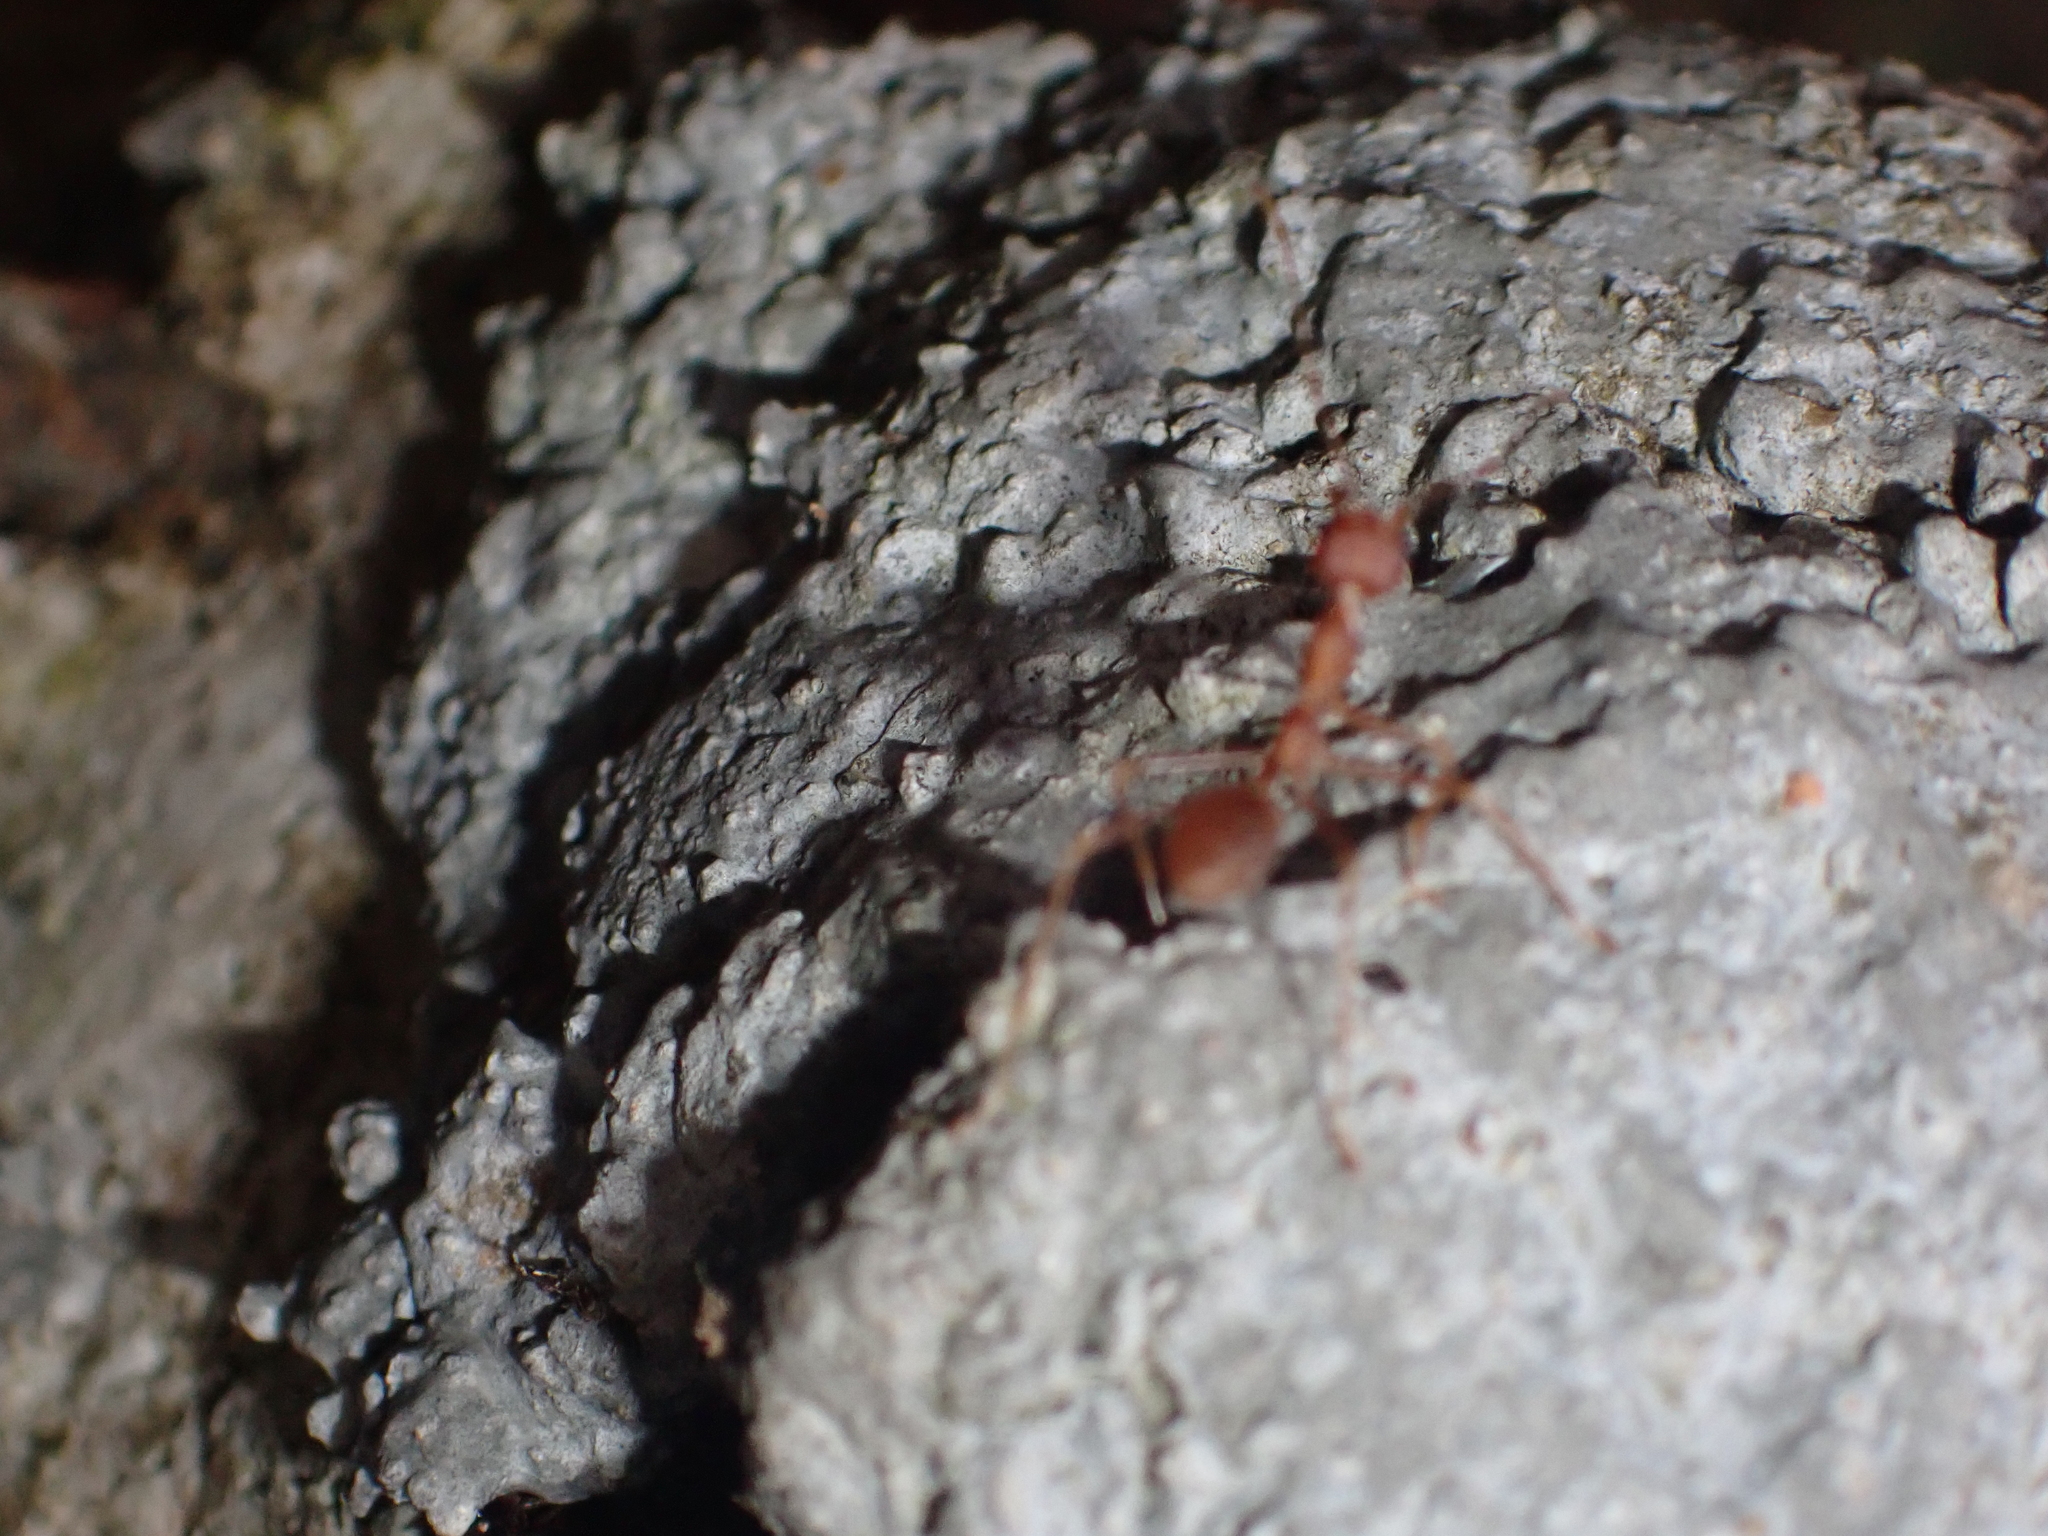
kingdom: Animalia
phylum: Arthropoda
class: Insecta
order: Hymenoptera
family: Formicidae
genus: Oecophylla
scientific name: Oecophylla smaragdina
